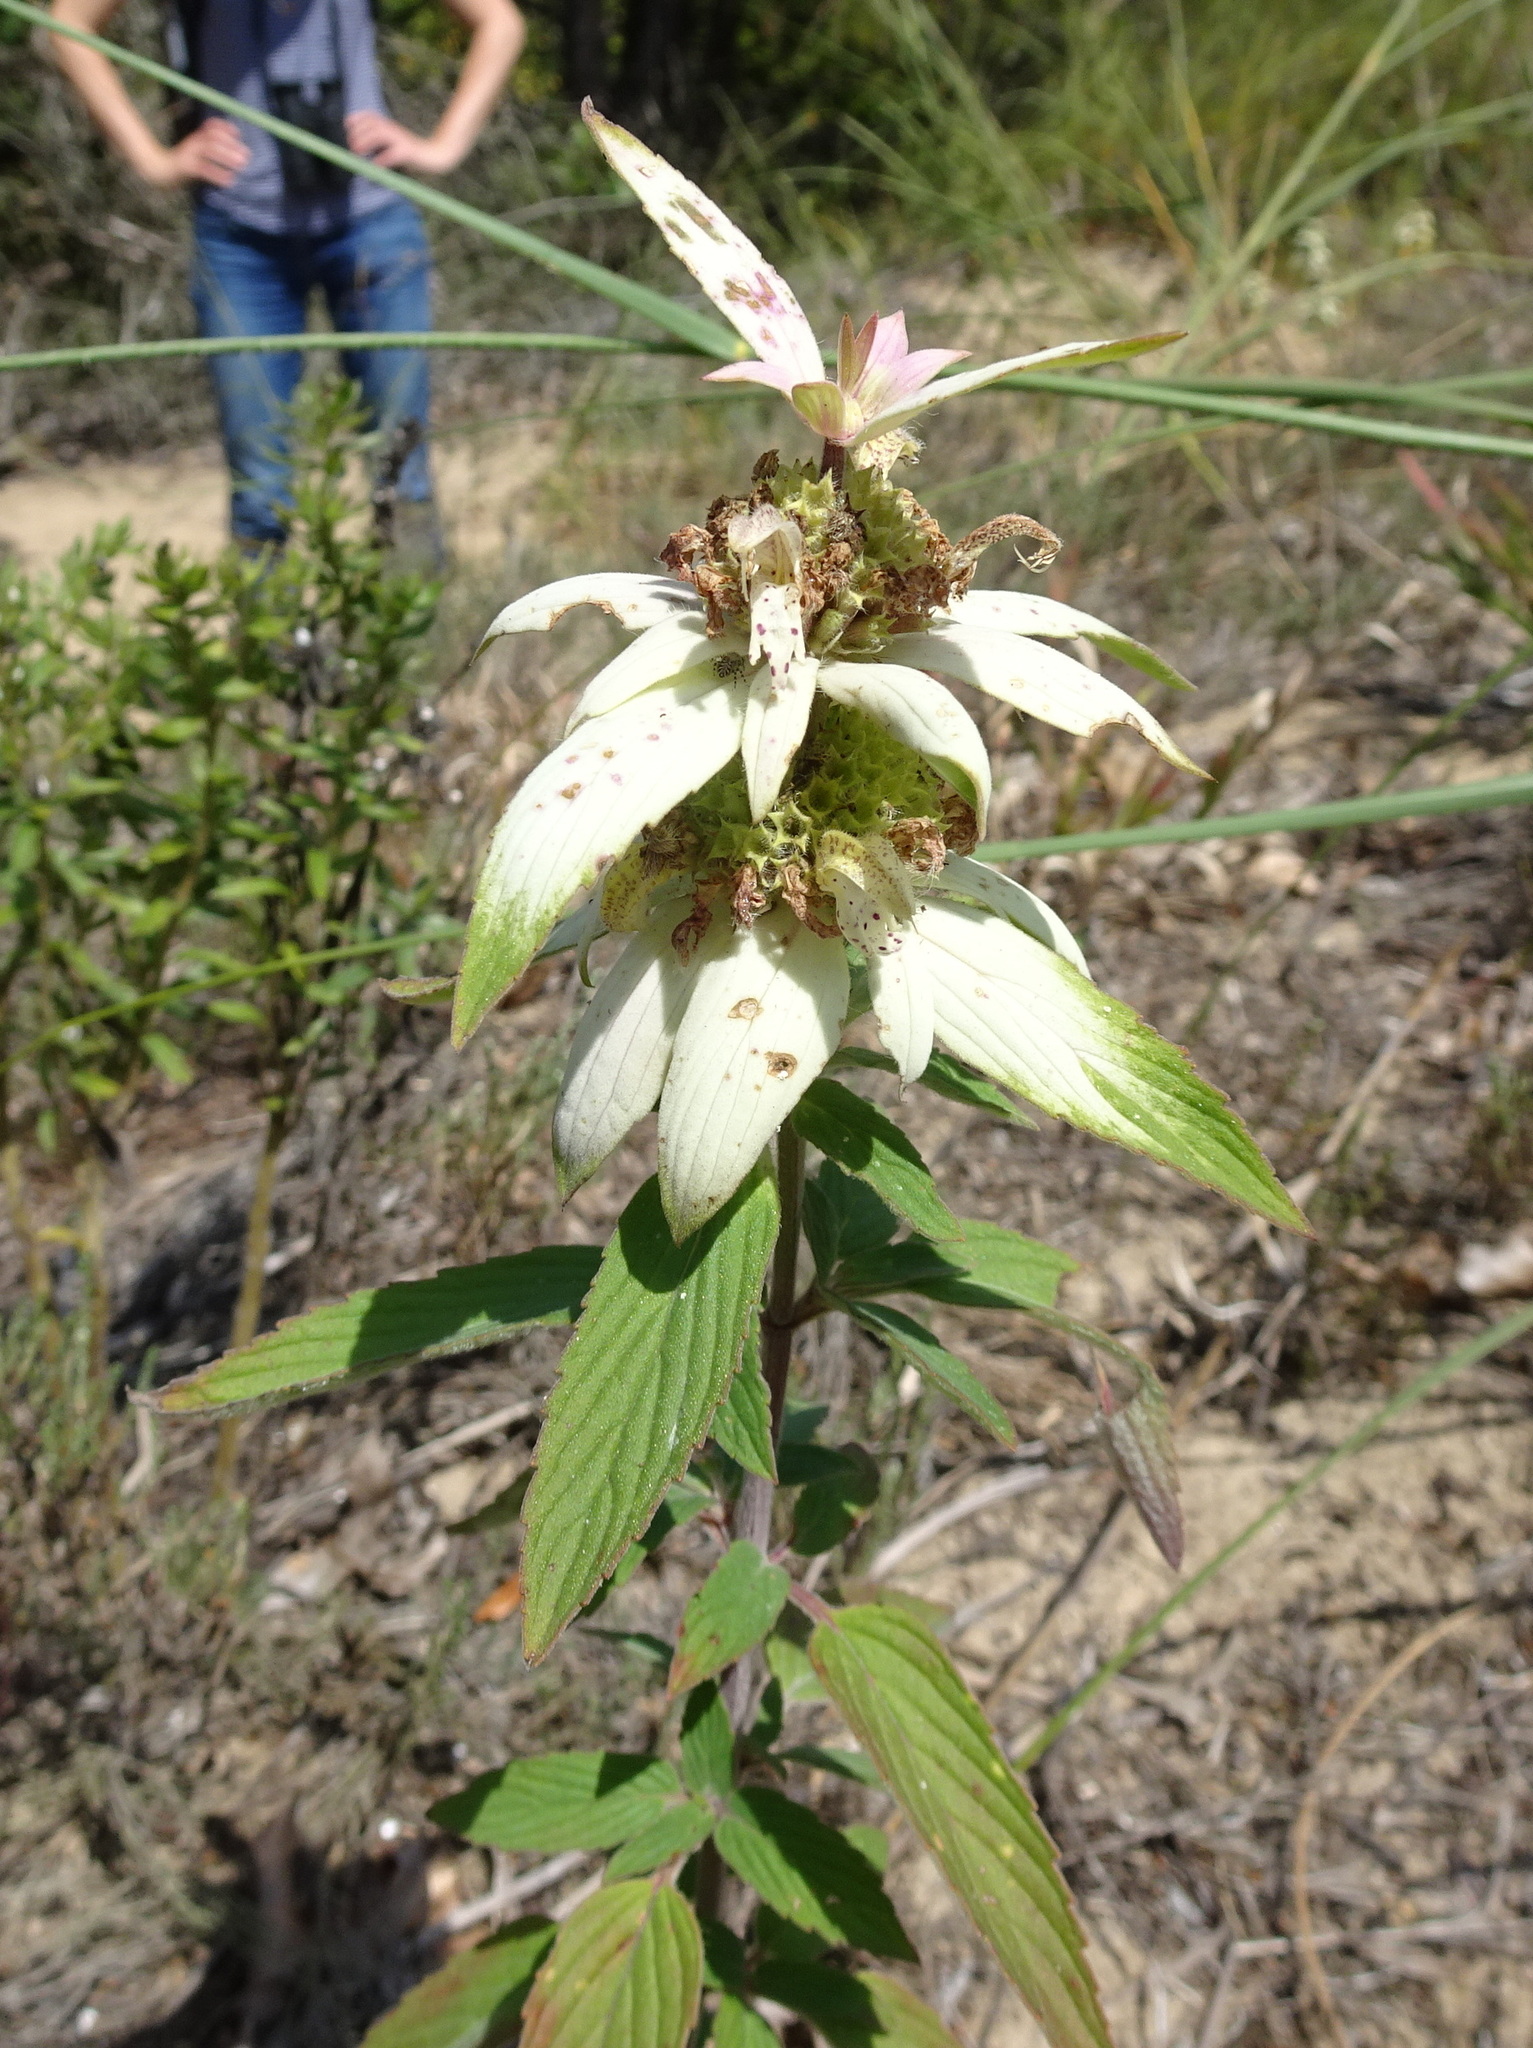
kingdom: Plantae
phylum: Tracheophyta
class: Magnoliopsida
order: Lamiales
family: Lamiaceae
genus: Monarda
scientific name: Monarda punctata
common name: Dotted monarda
